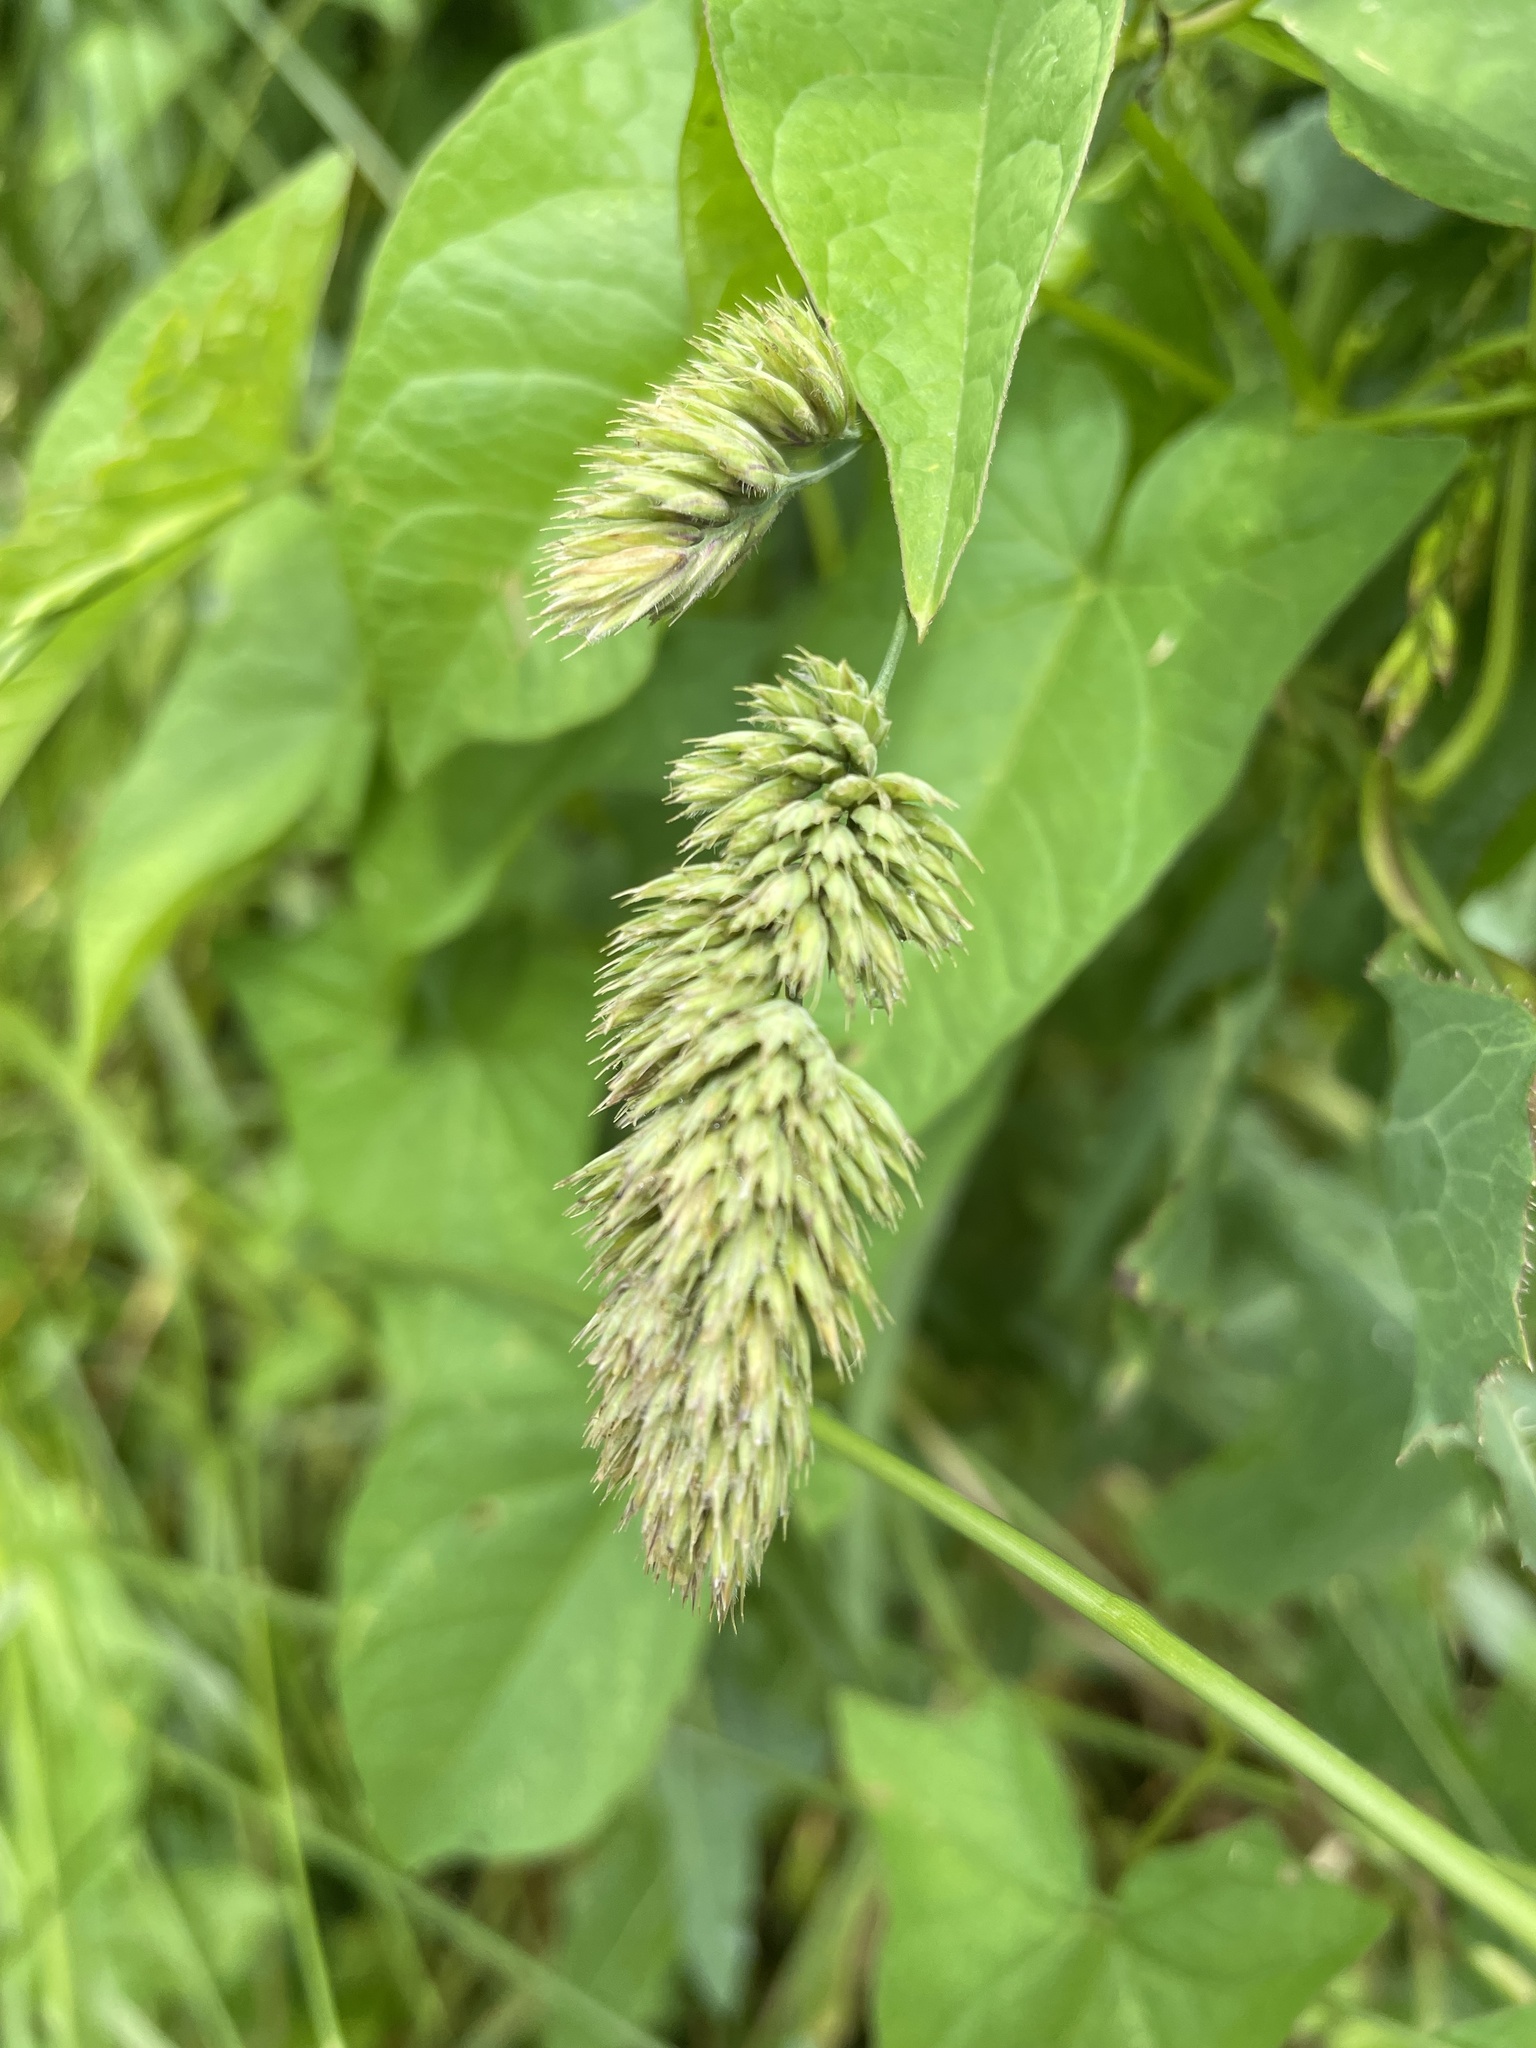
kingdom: Plantae
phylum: Tracheophyta
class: Liliopsida
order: Poales
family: Poaceae
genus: Dactylis
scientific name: Dactylis glomerata
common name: Orchardgrass
